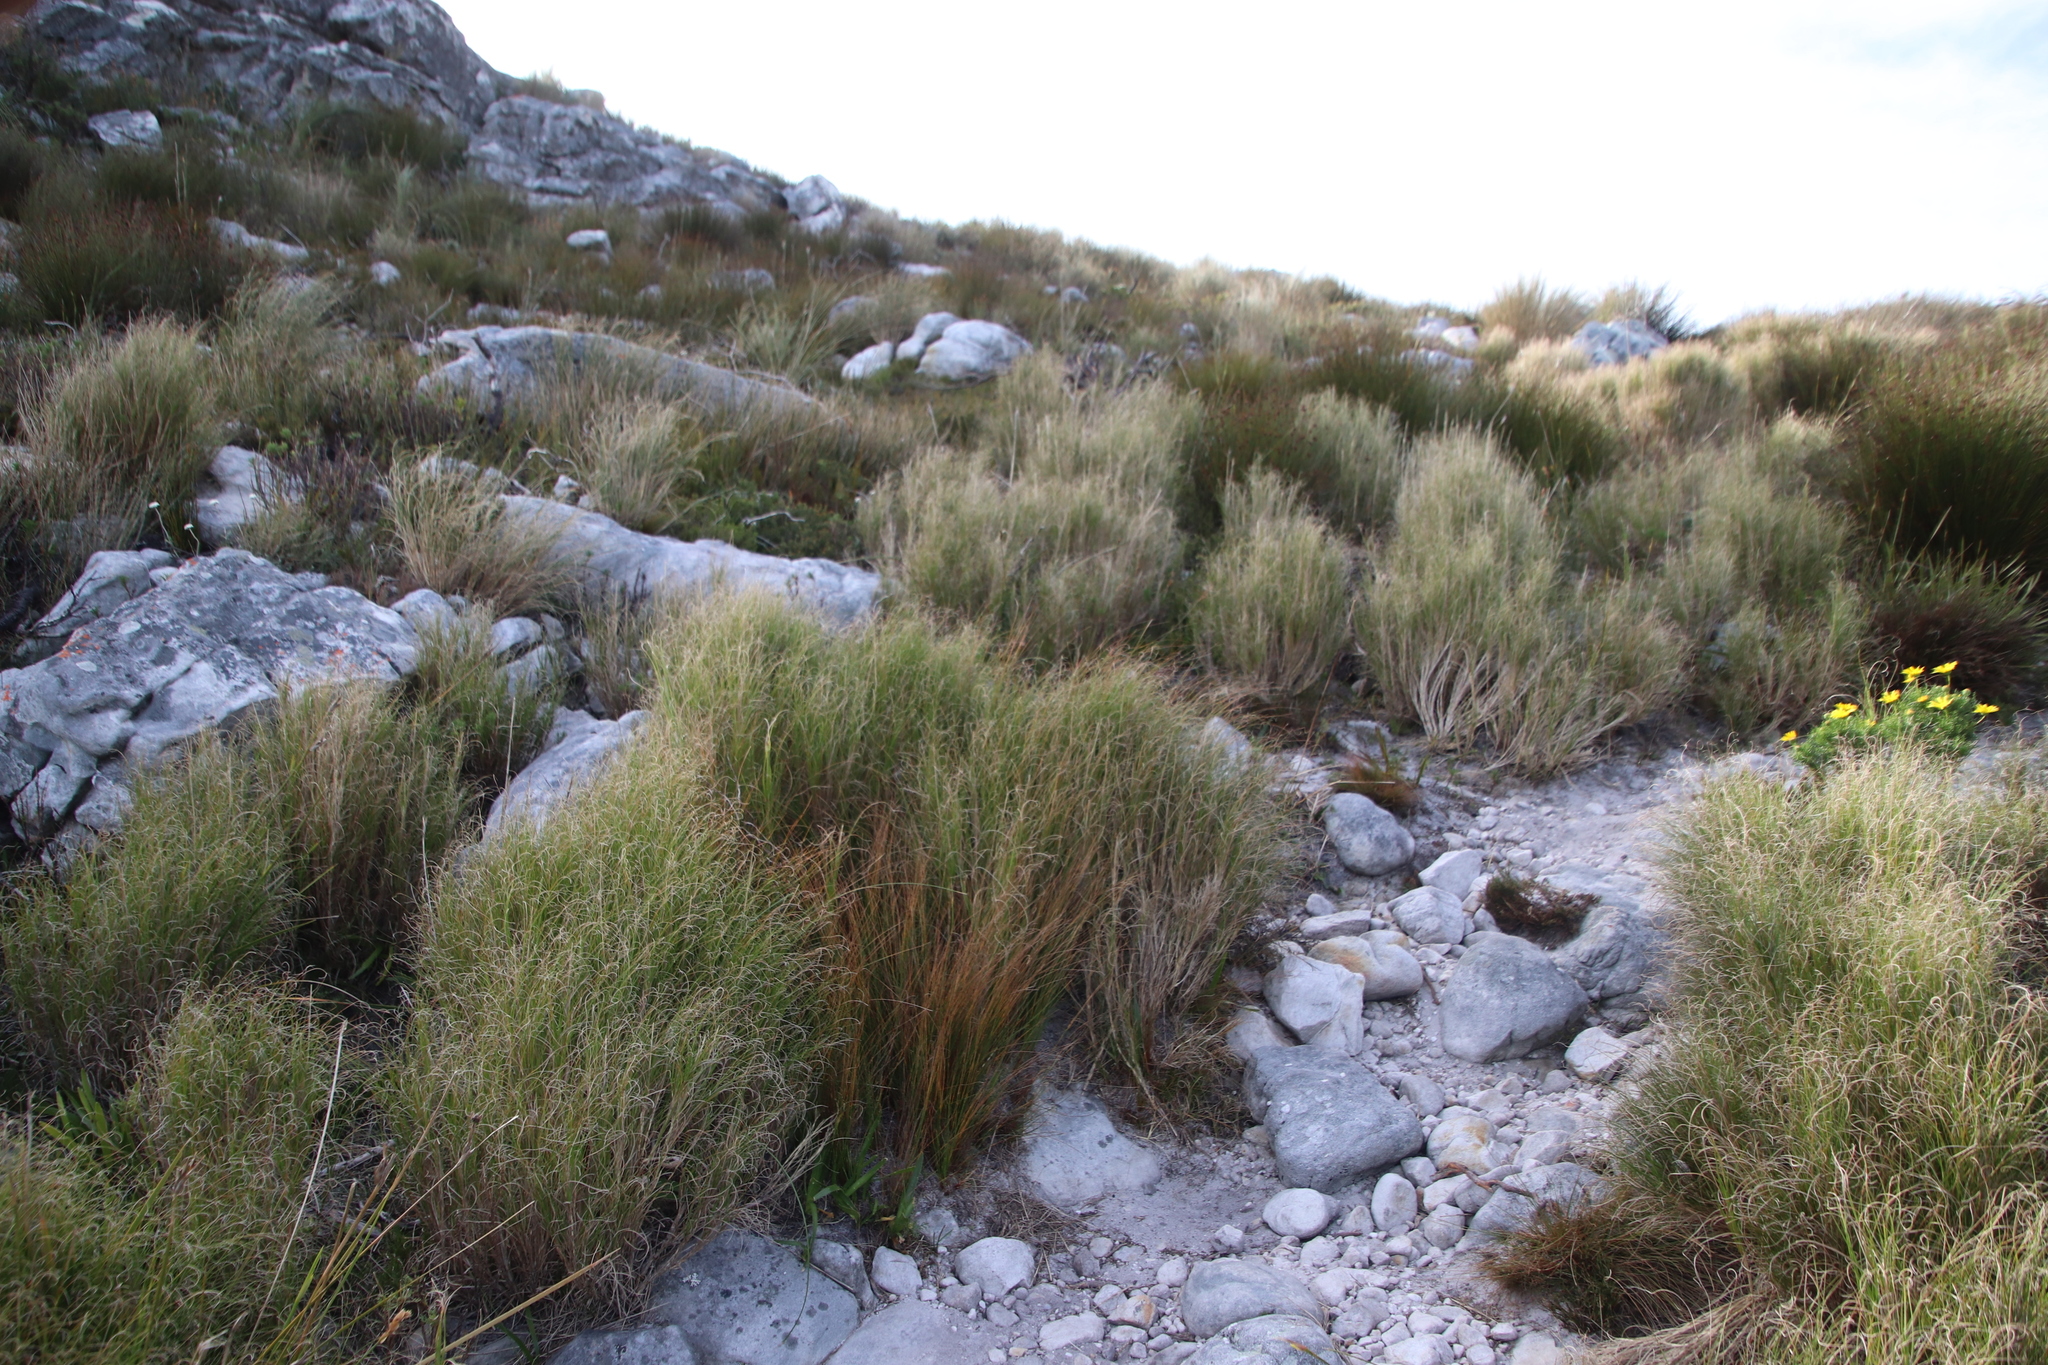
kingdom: Plantae
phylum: Tracheophyta
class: Liliopsida
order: Poales
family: Poaceae
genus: Pseudopentameris
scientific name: Pseudopentameris macrantha
